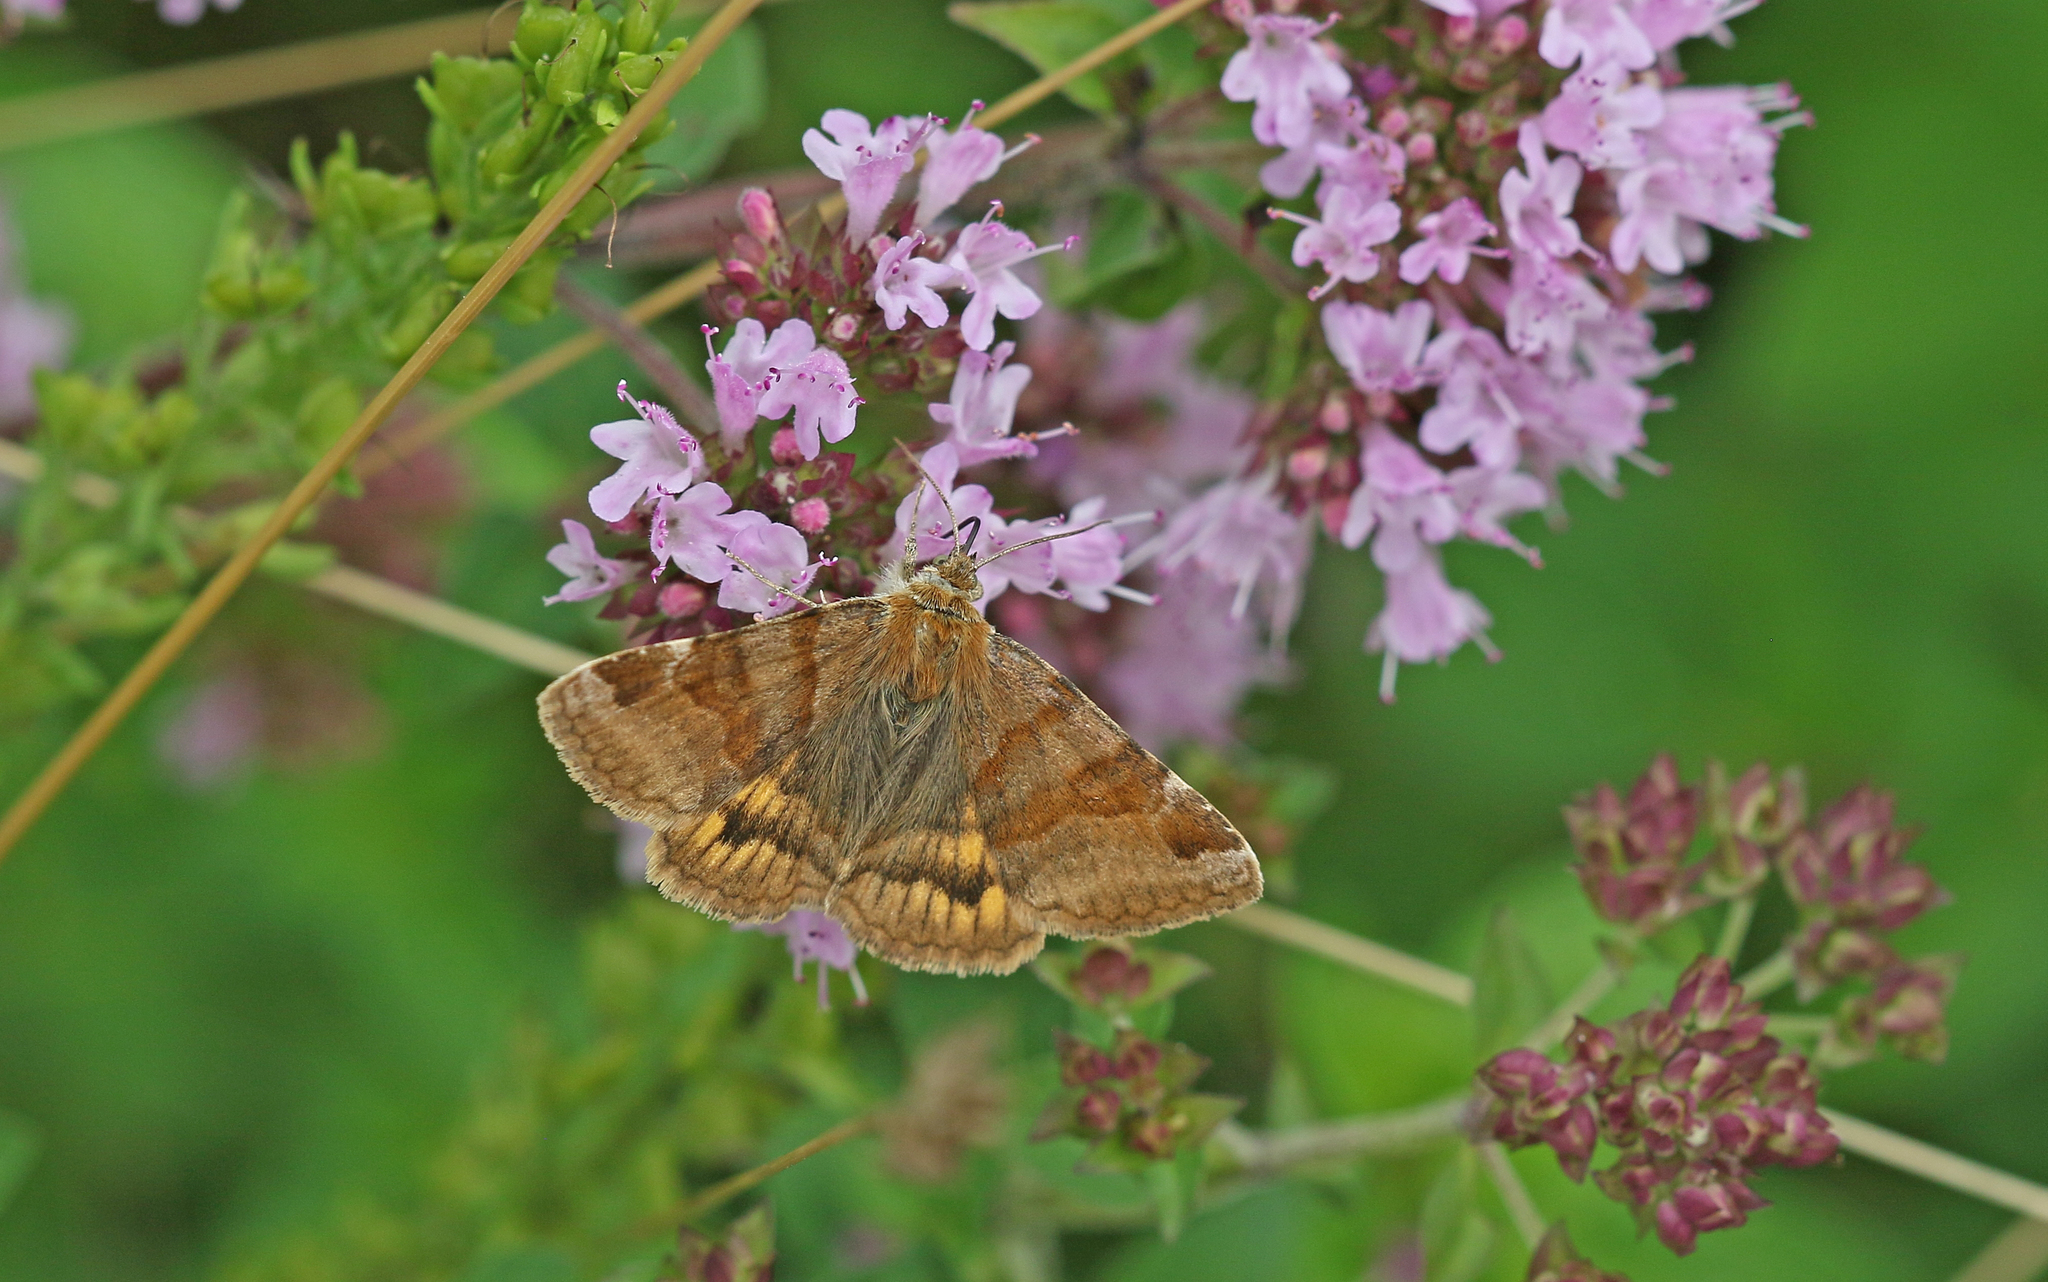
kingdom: Animalia
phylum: Arthropoda
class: Insecta
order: Lepidoptera
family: Erebidae
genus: Euclidia
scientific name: Euclidia glyphica
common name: Burnet companion
